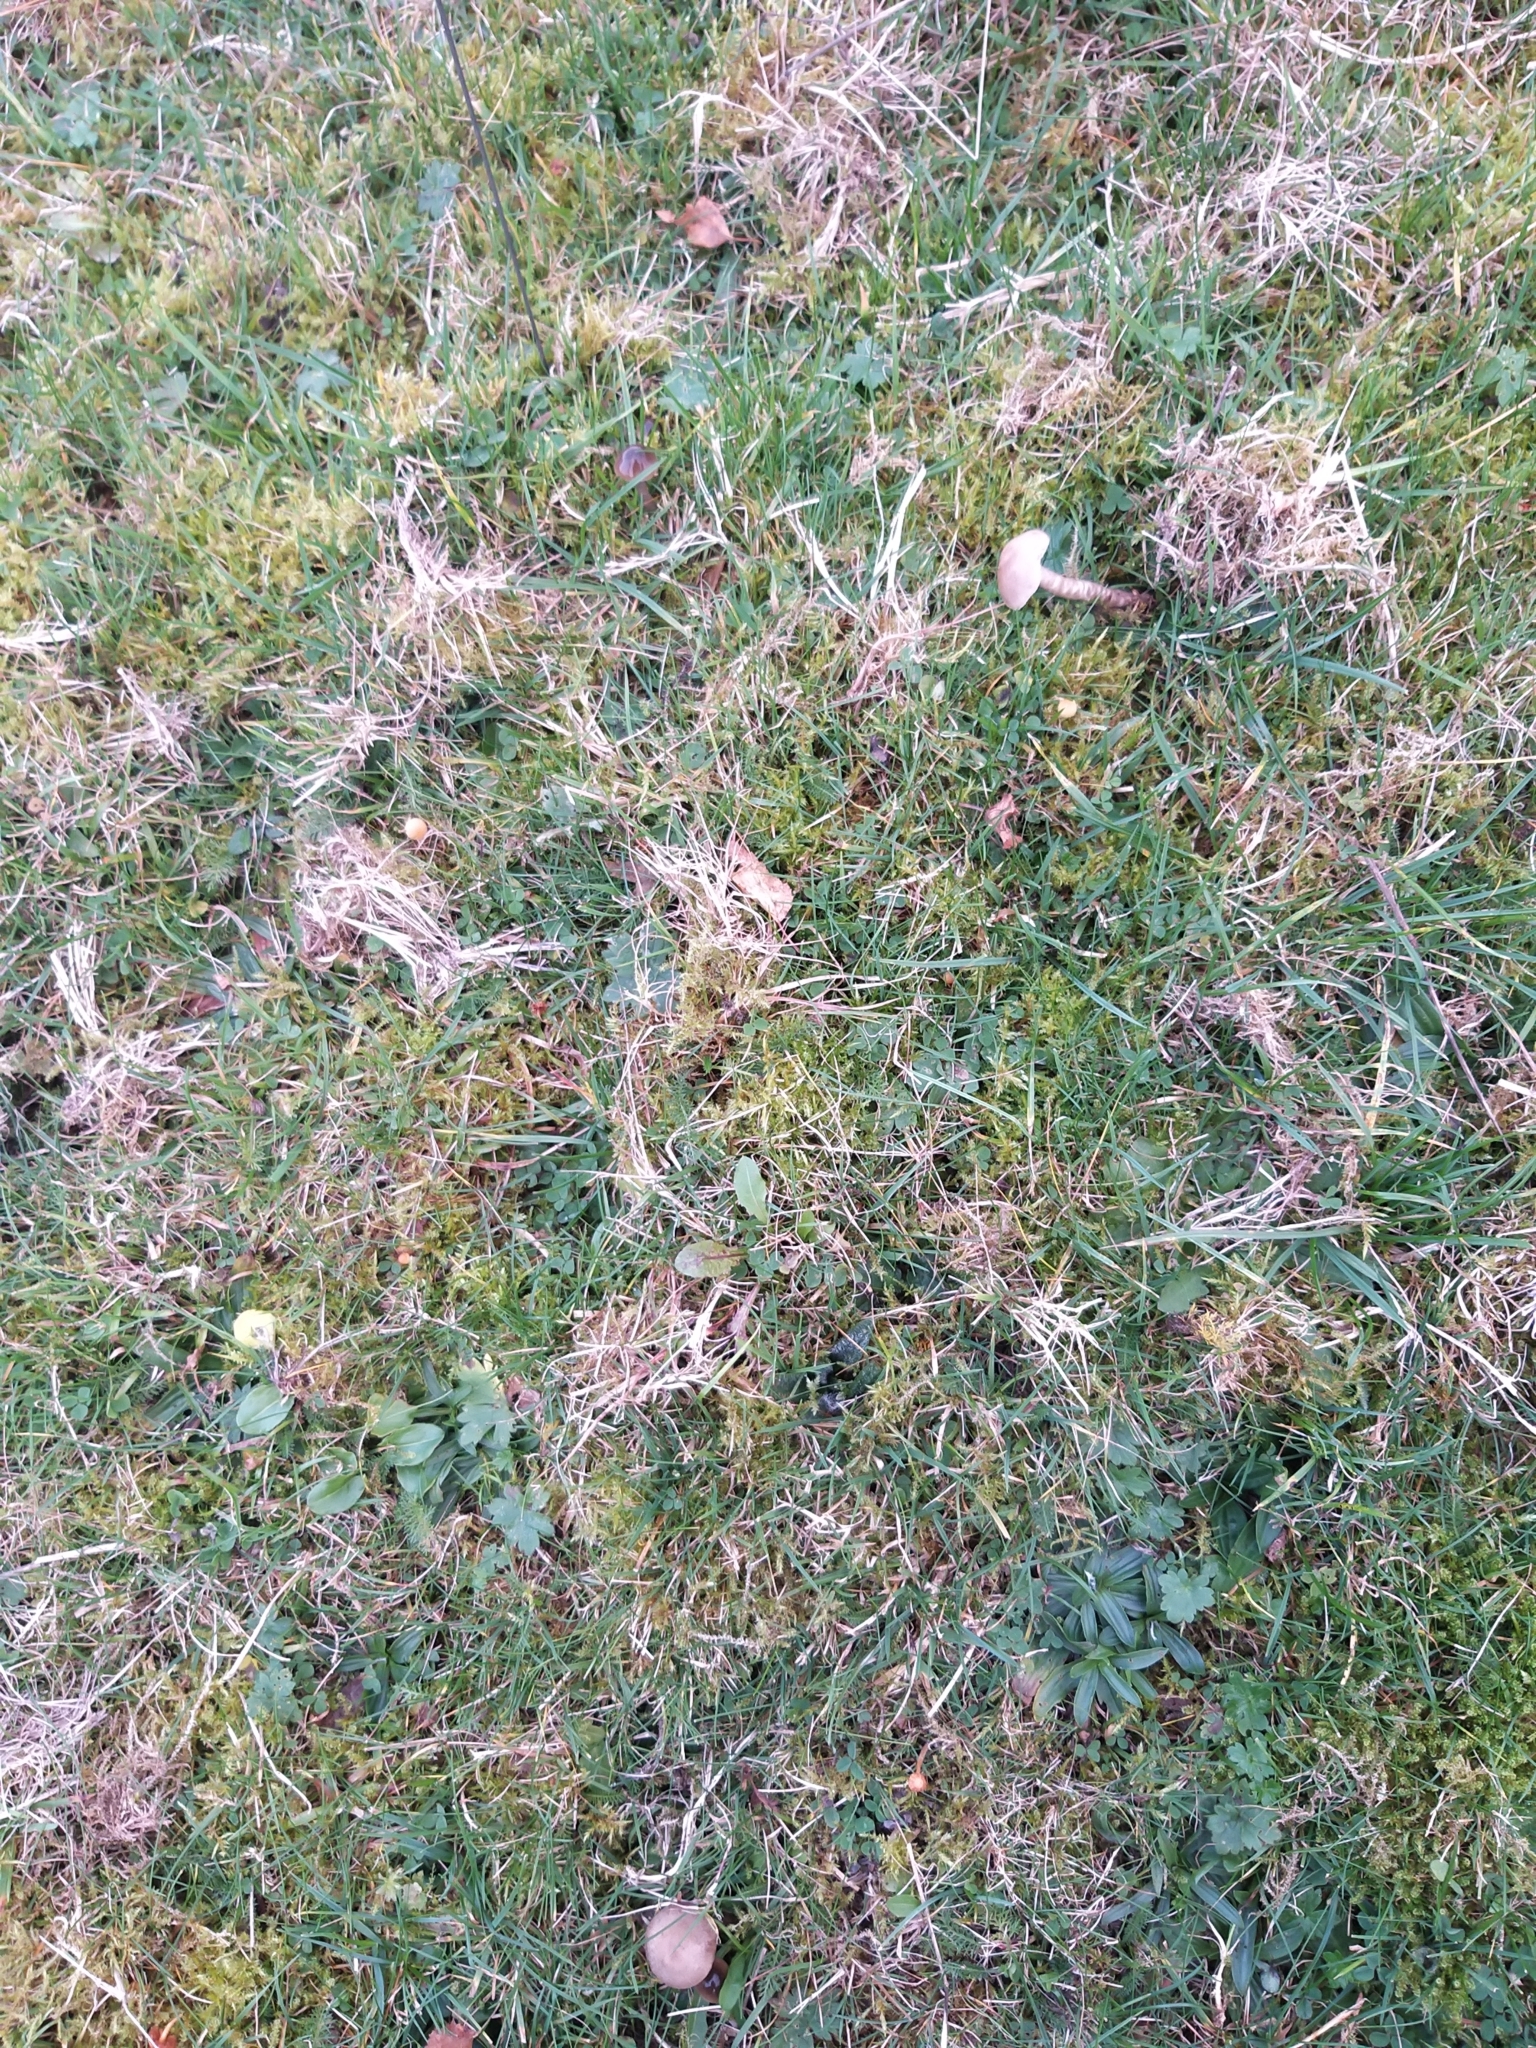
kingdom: Fungi
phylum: Basidiomycota
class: Agaricomycetes
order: Agaricales
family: Hygrophoraceae
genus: Gliophorus
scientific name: Gliophorus irrigatus
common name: Slimy waxcap
